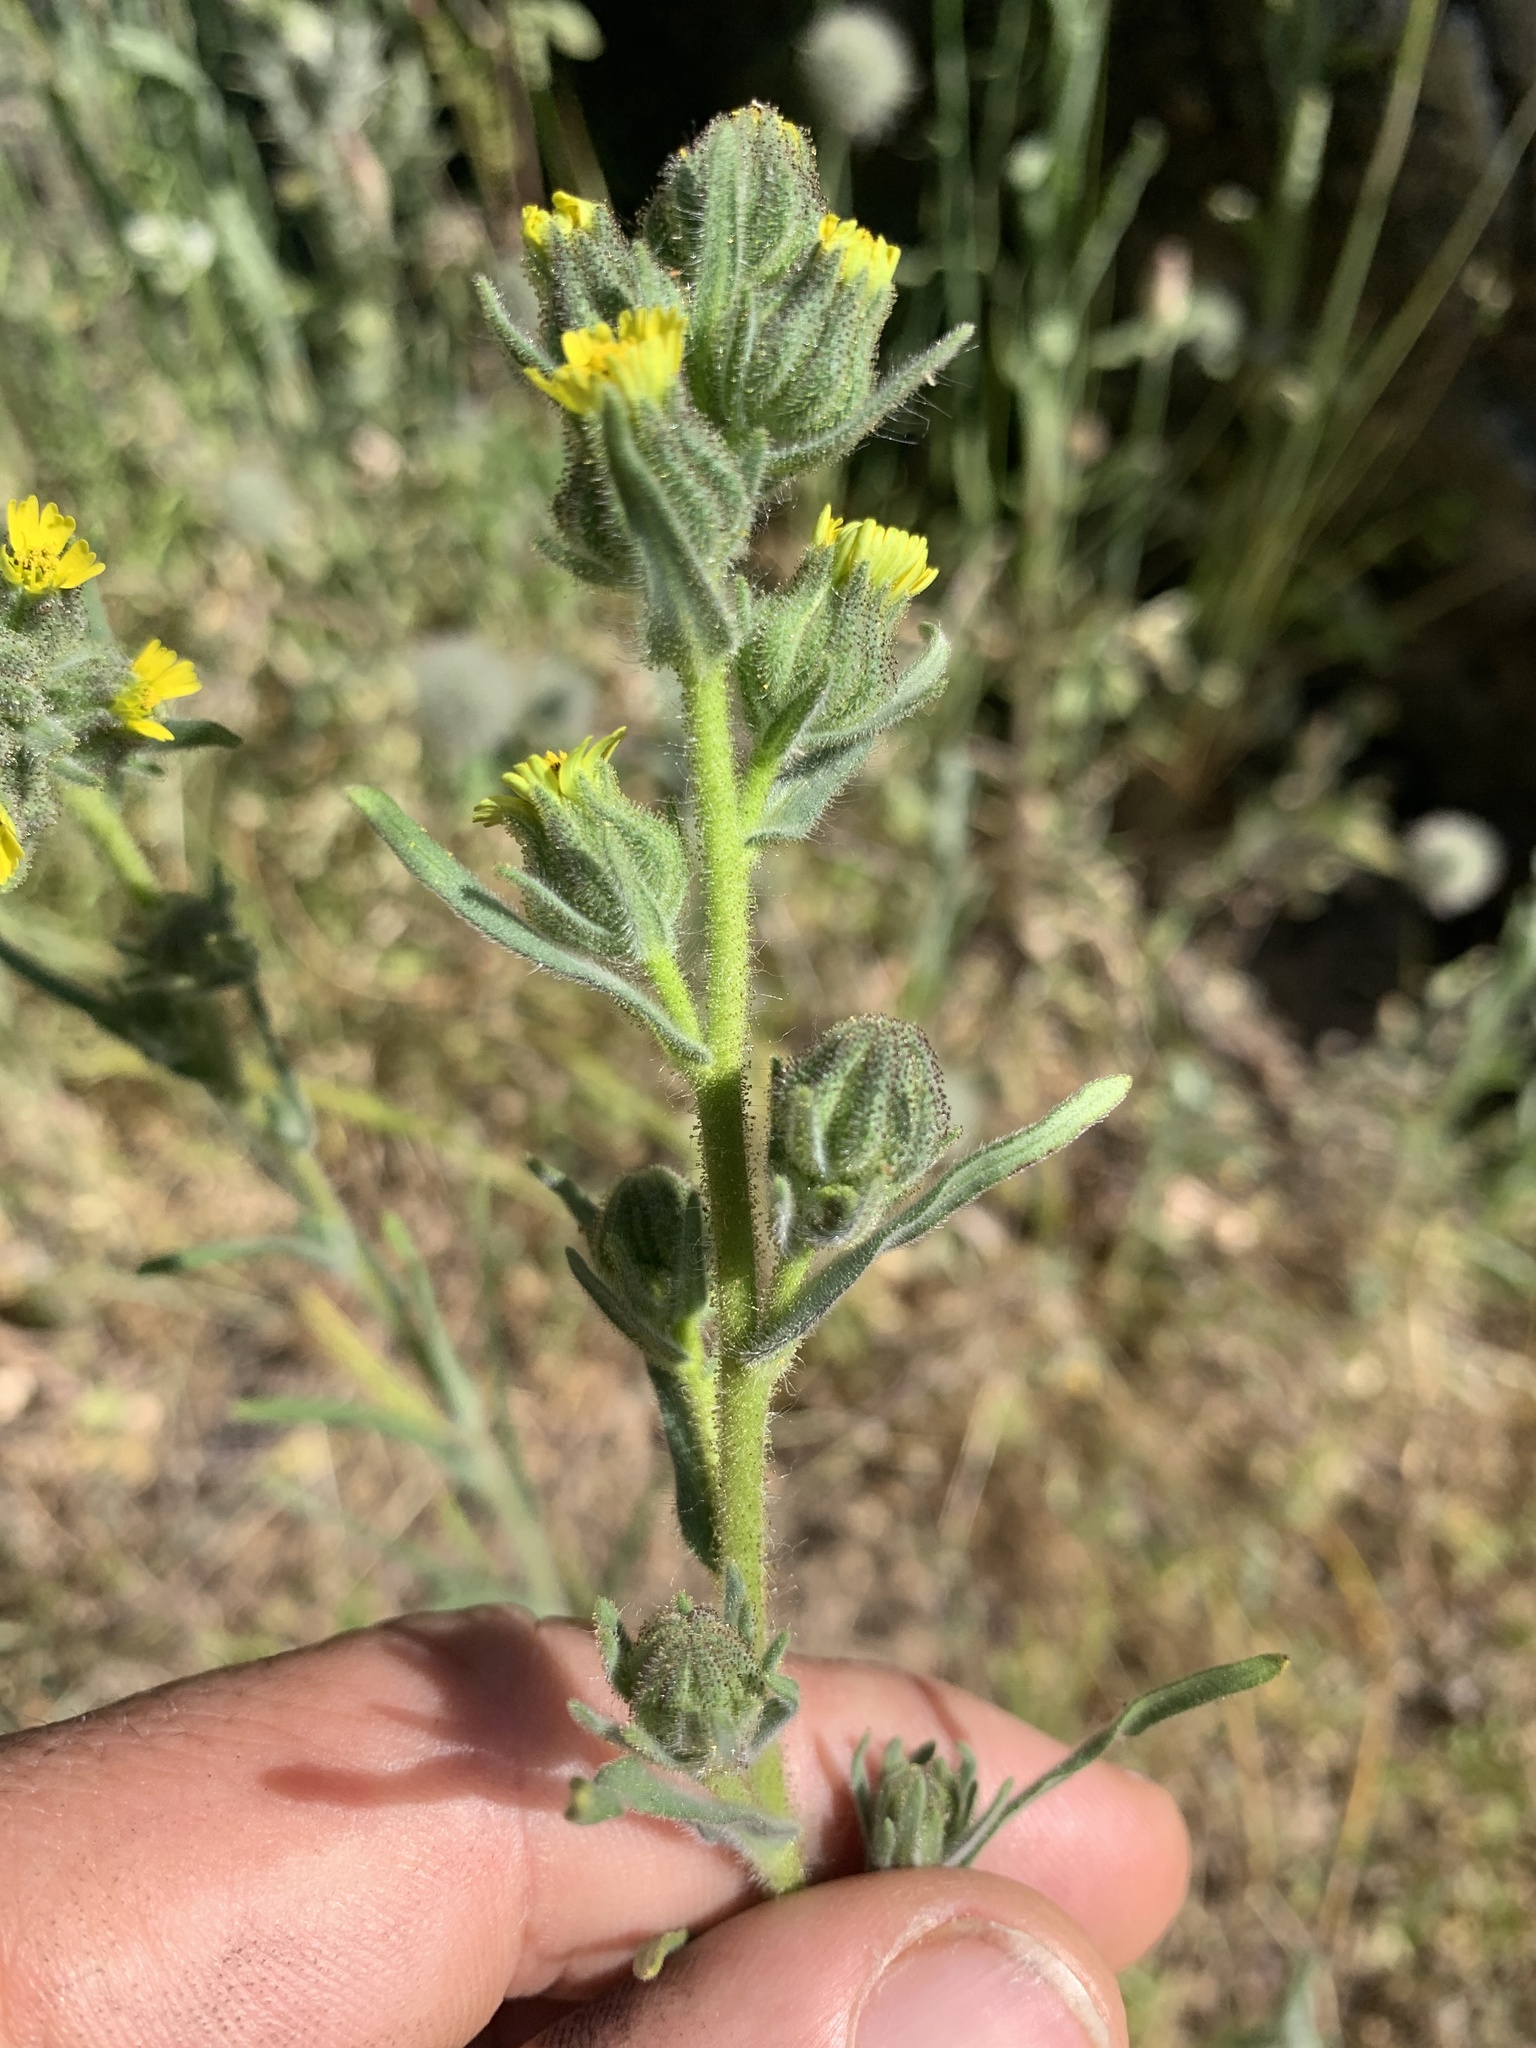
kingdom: Plantae
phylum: Tracheophyta
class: Magnoliopsida
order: Asterales
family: Asteraceae
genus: Madia
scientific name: Madia gracilis
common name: Grassy tarweed
